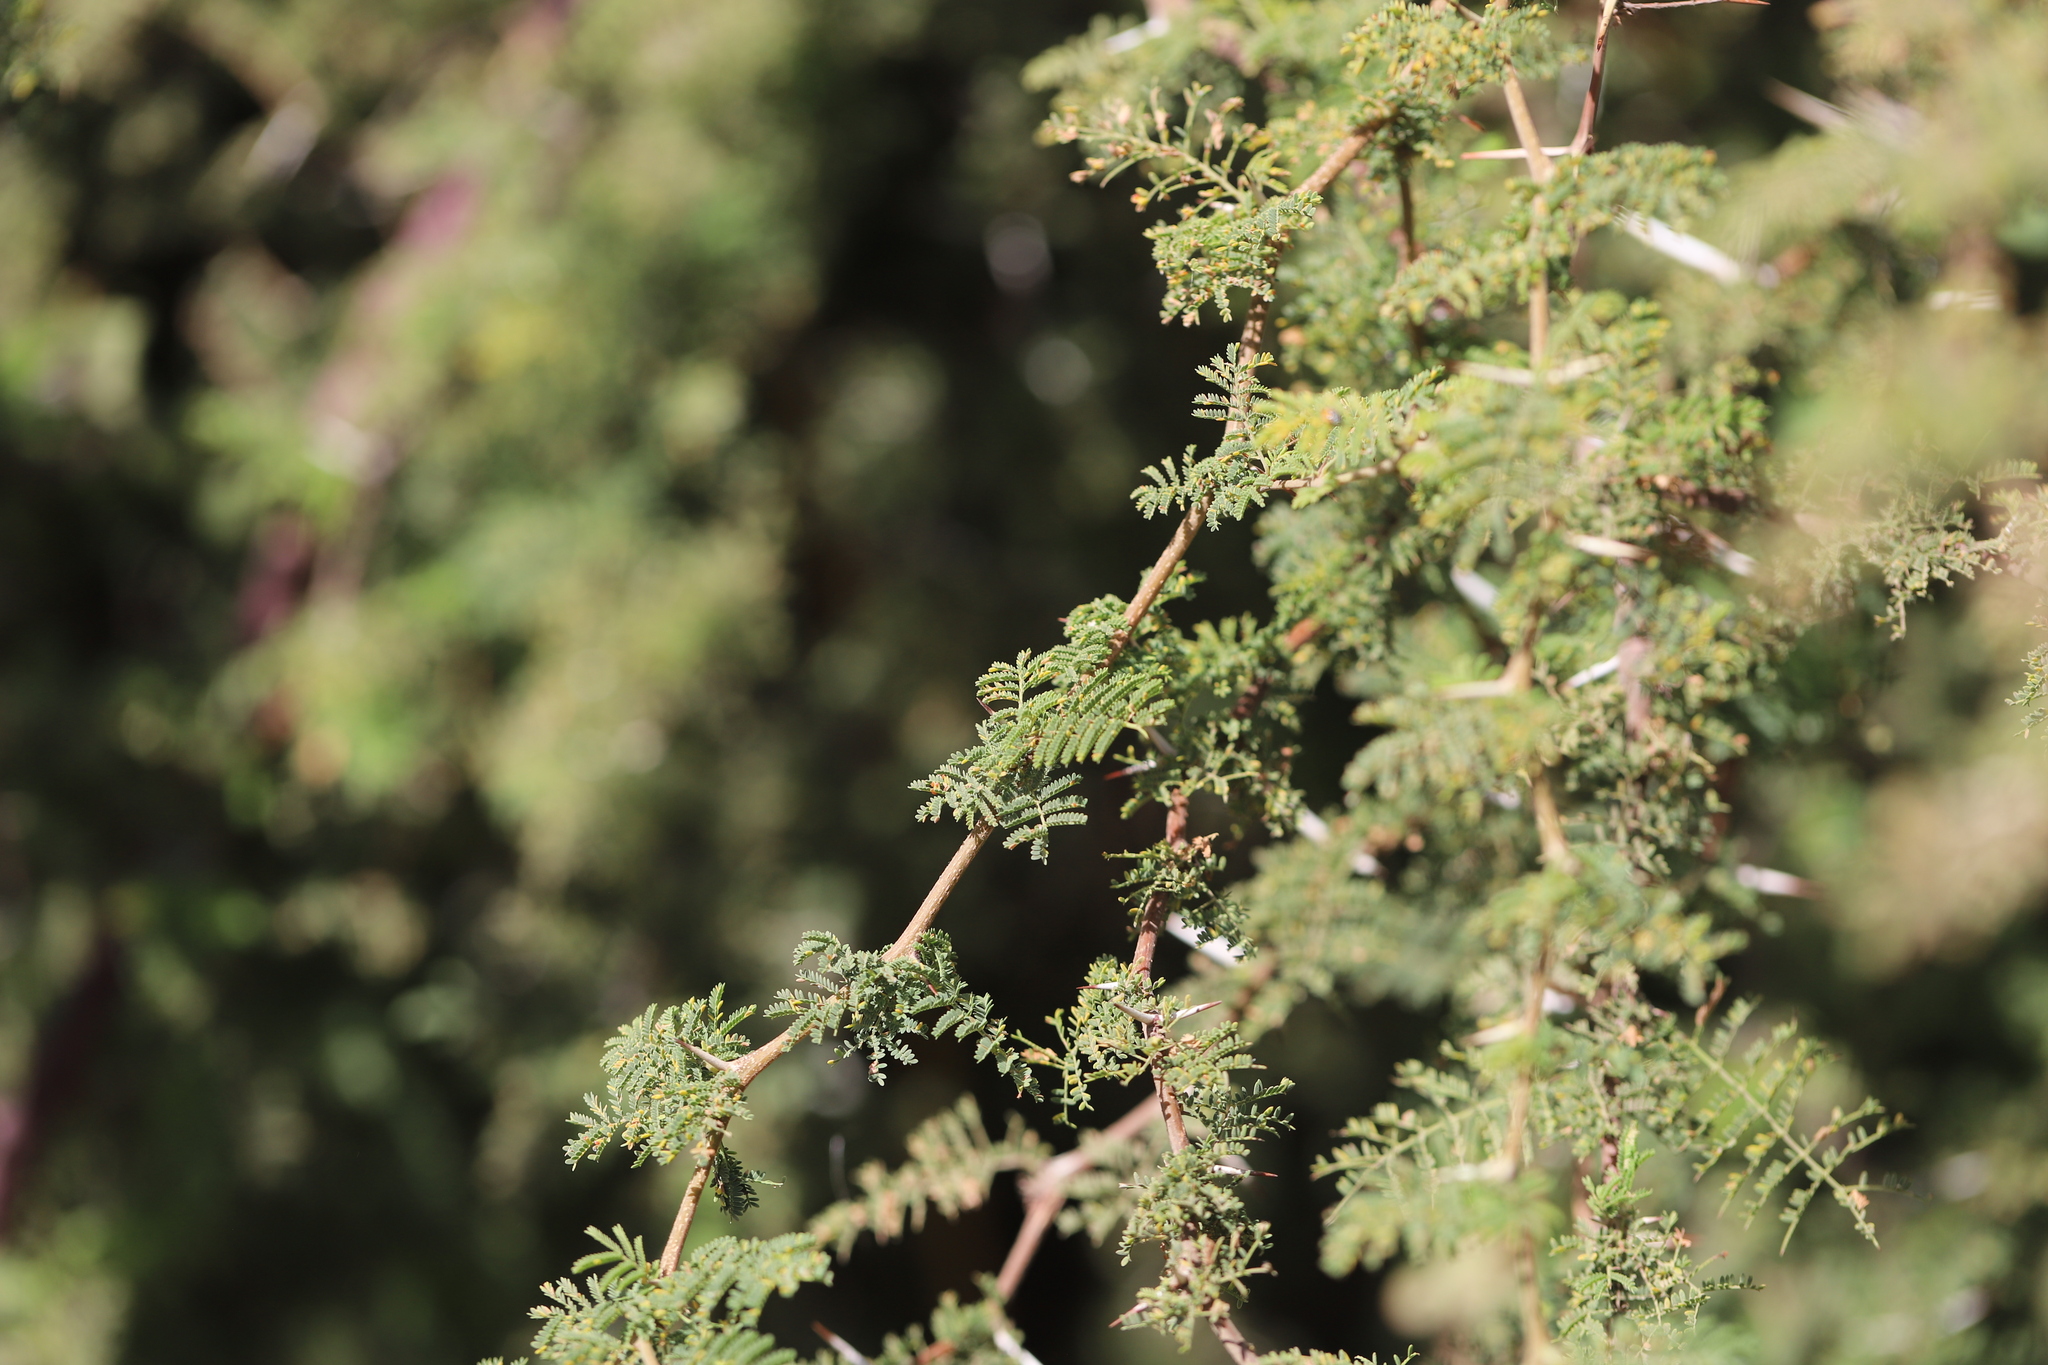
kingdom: Plantae
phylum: Tracheophyta
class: Magnoliopsida
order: Fabales
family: Fabaceae
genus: Vachellia
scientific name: Vachellia caven
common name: Roman cassie
